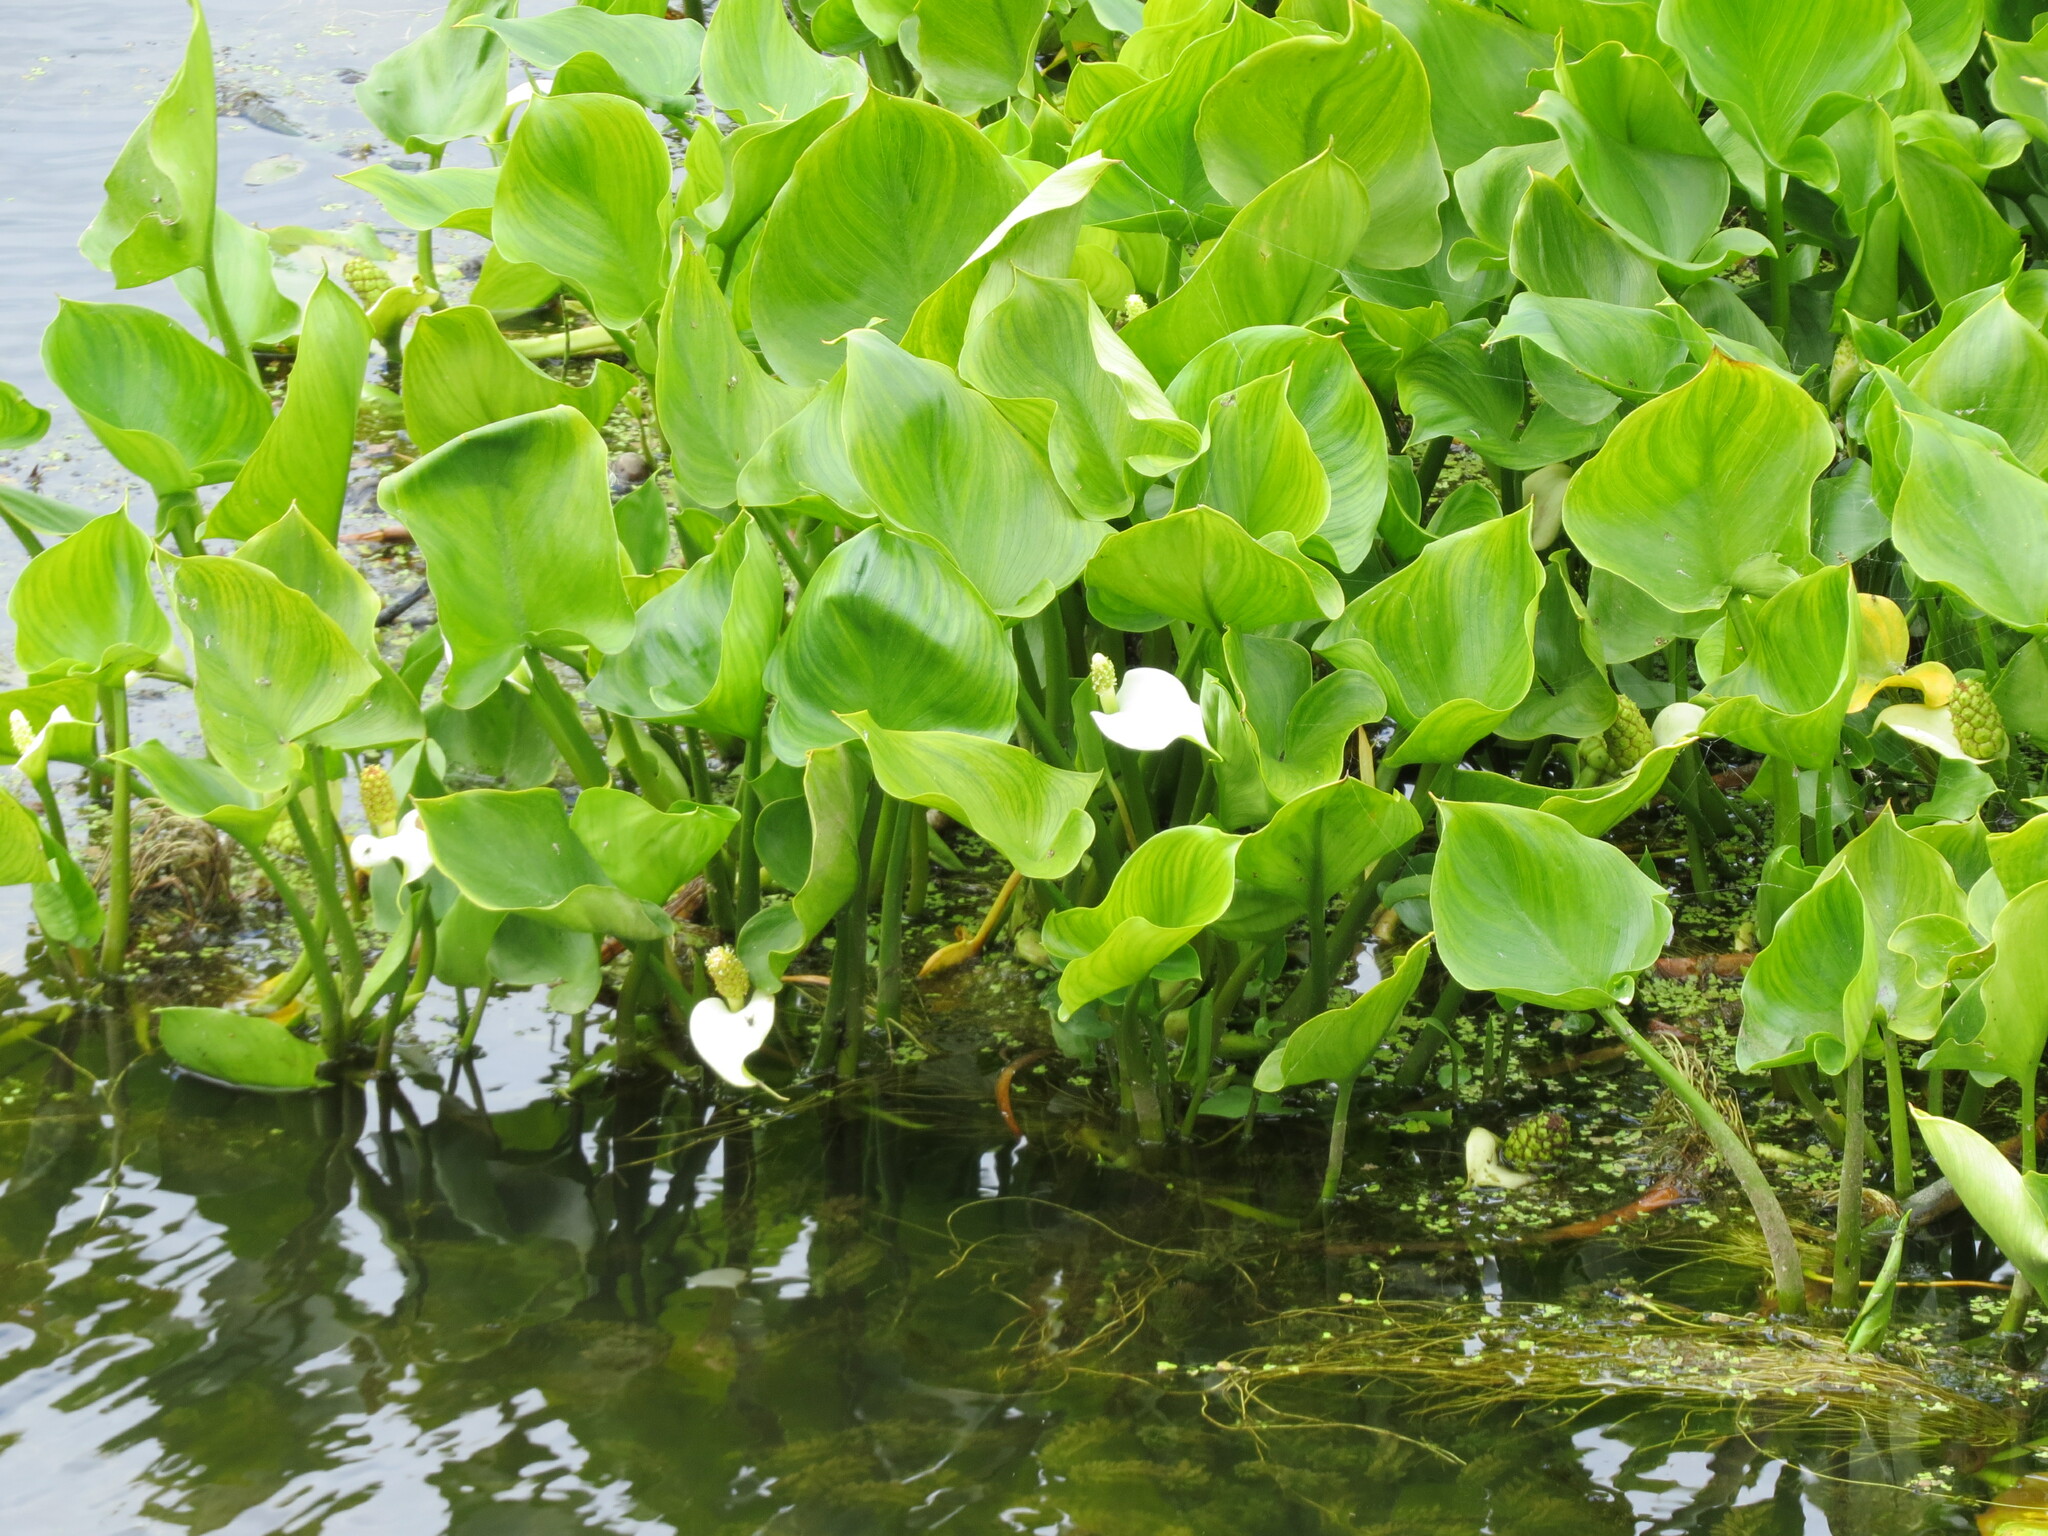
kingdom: Plantae
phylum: Tracheophyta
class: Liliopsida
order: Alismatales
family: Araceae
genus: Calla
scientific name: Calla palustris
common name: Bog arum
